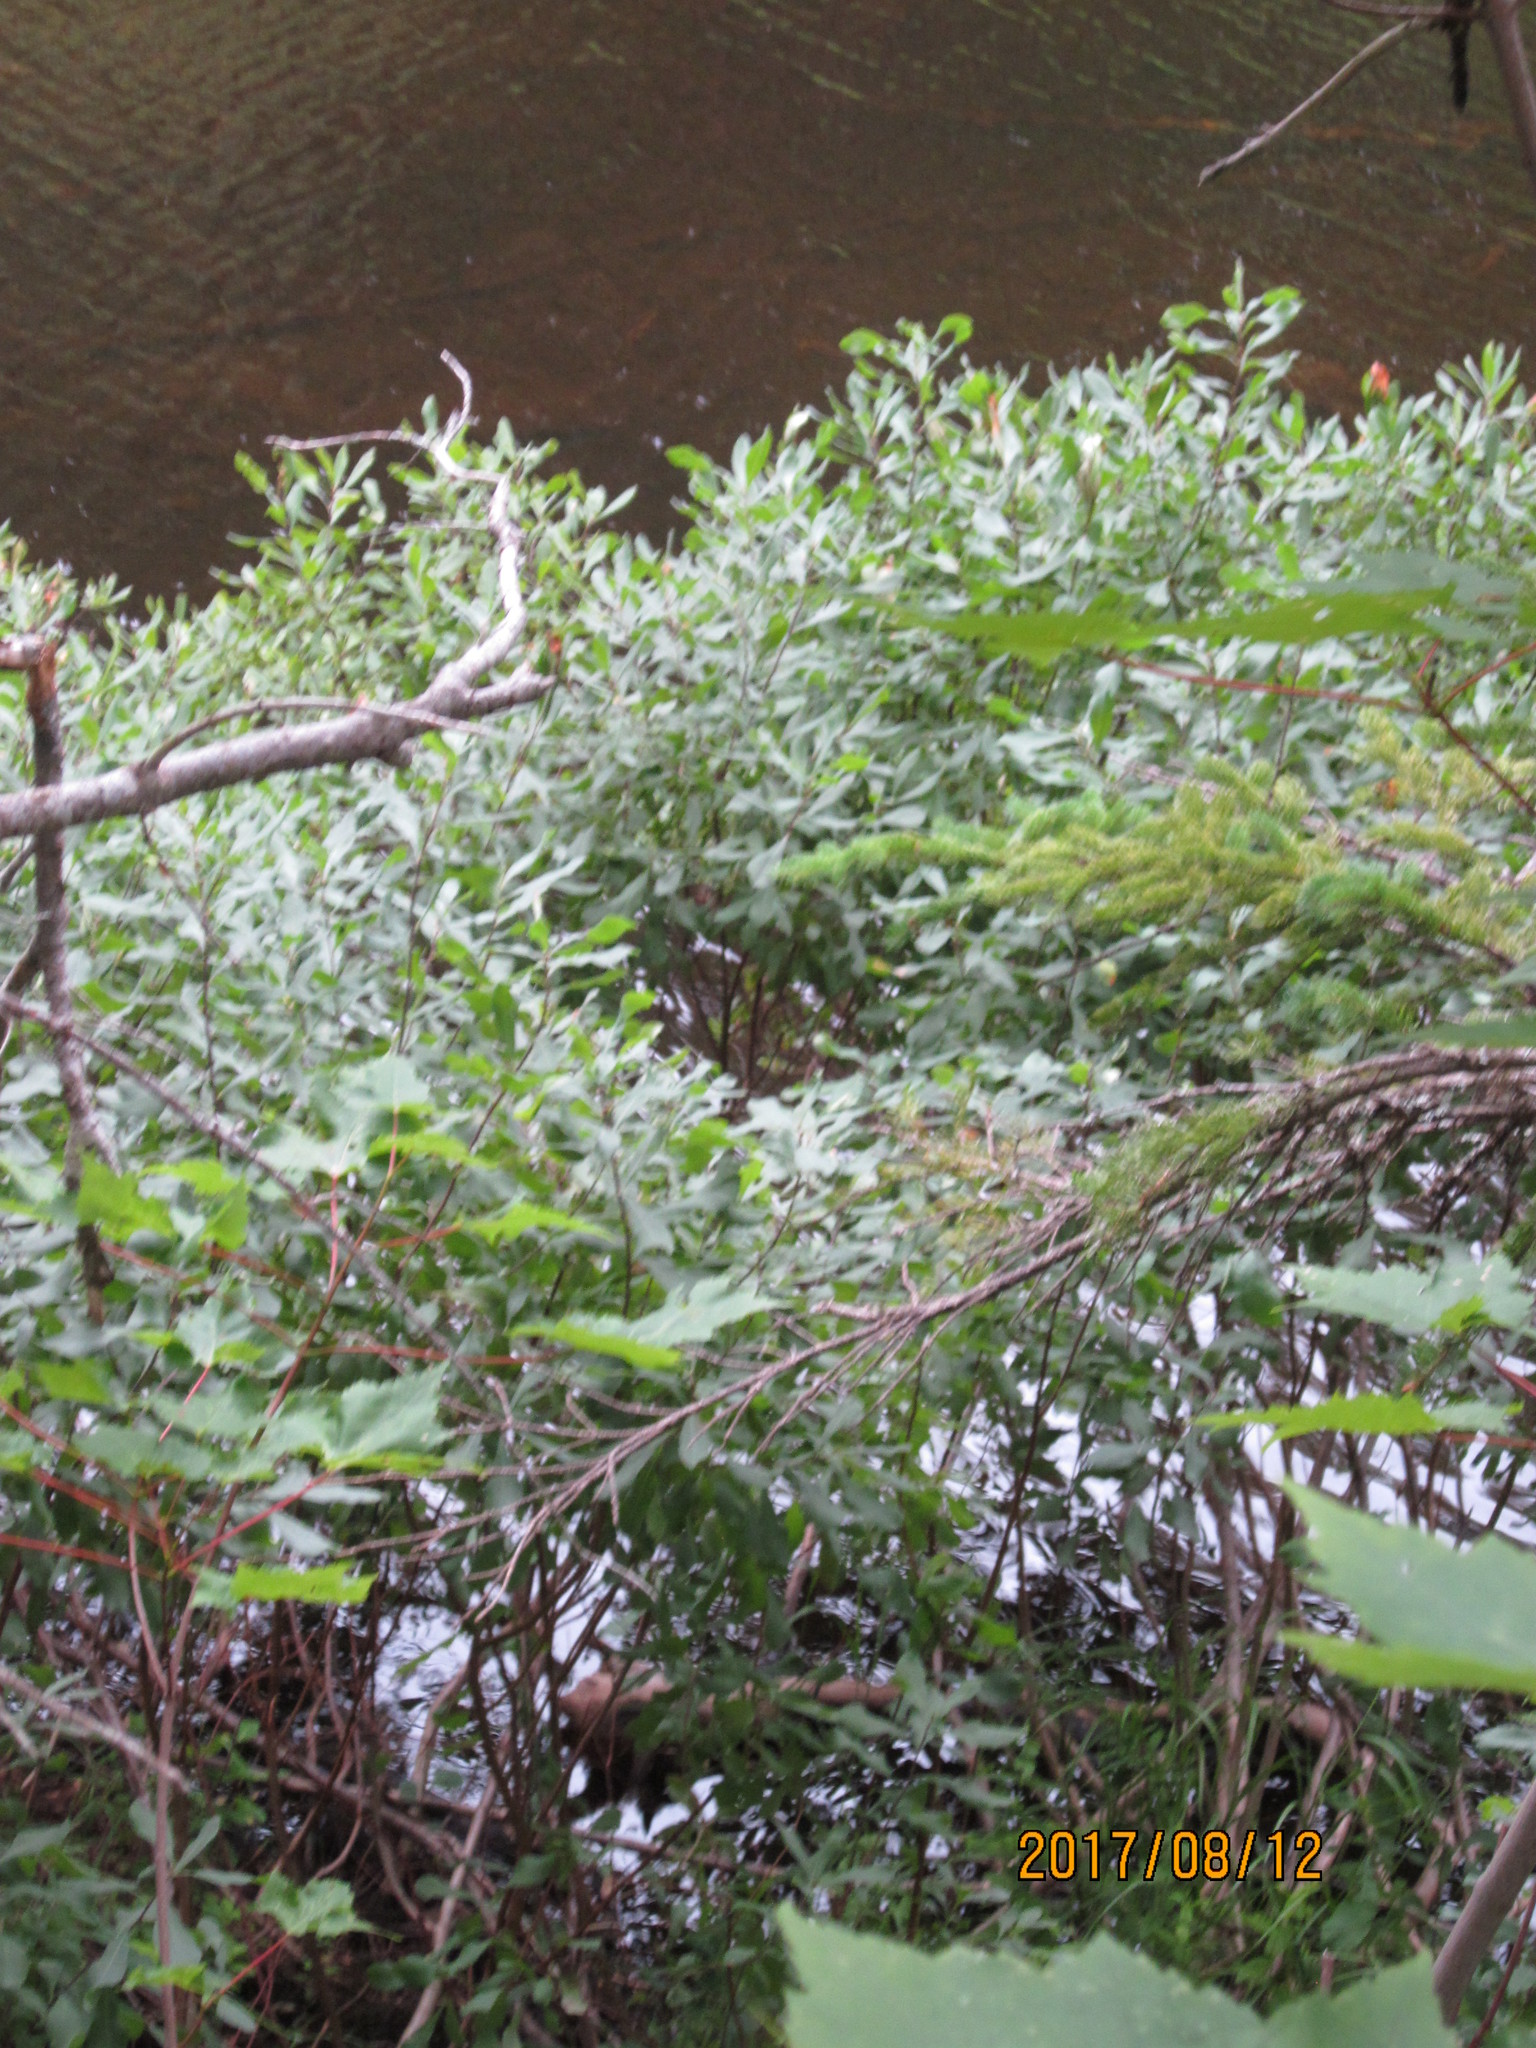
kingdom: Plantae
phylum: Tracheophyta
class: Magnoliopsida
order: Fagales
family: Myricaceae
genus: Myrica
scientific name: Myrica gale
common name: Sweet gale
